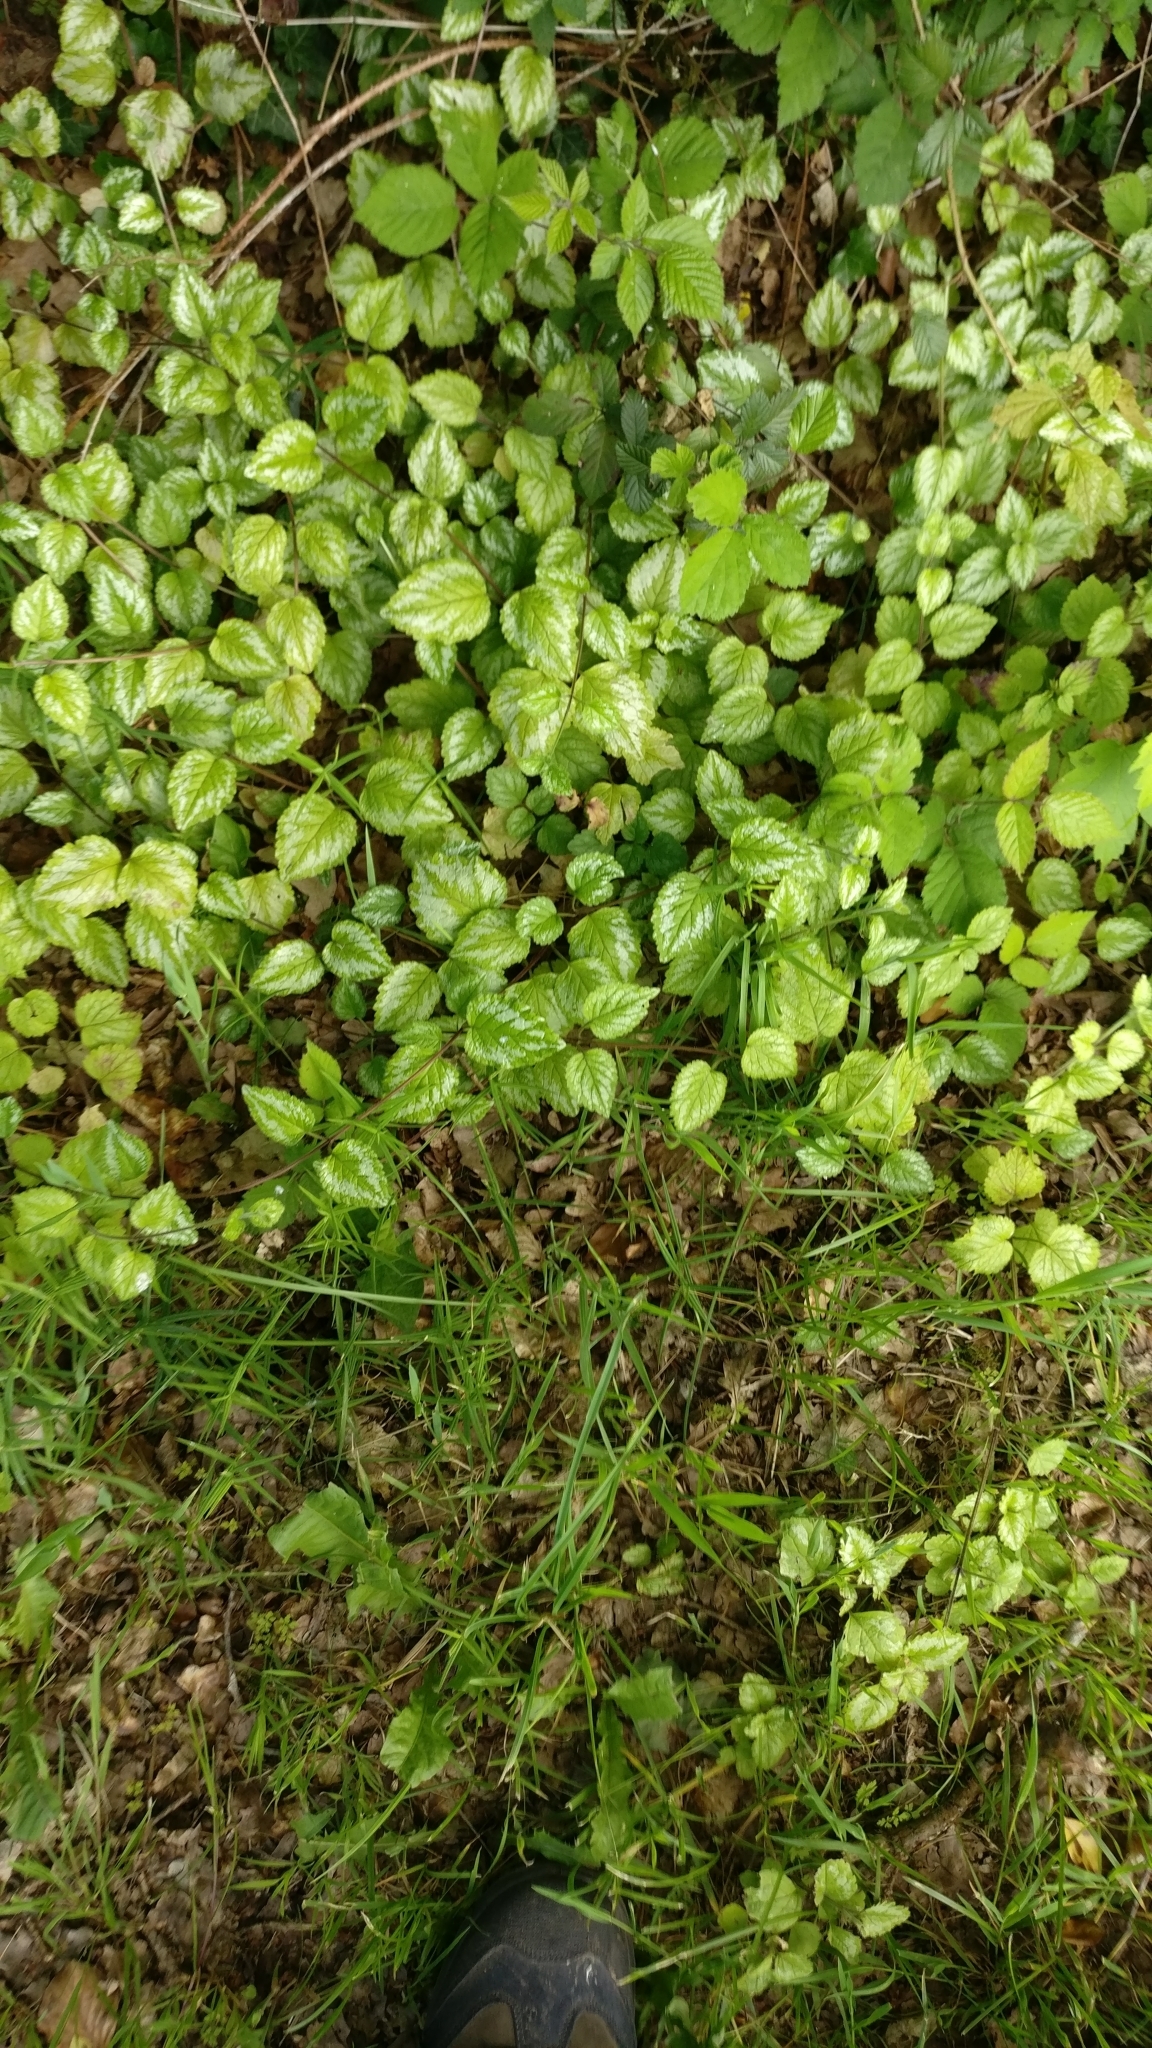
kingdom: Plantae
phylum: Tracheophyta
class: Magnoliopsida
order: Lamiales
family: Lamiaceae
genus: Lamium
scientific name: Lamium galeobdolon
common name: Yellow archangel
